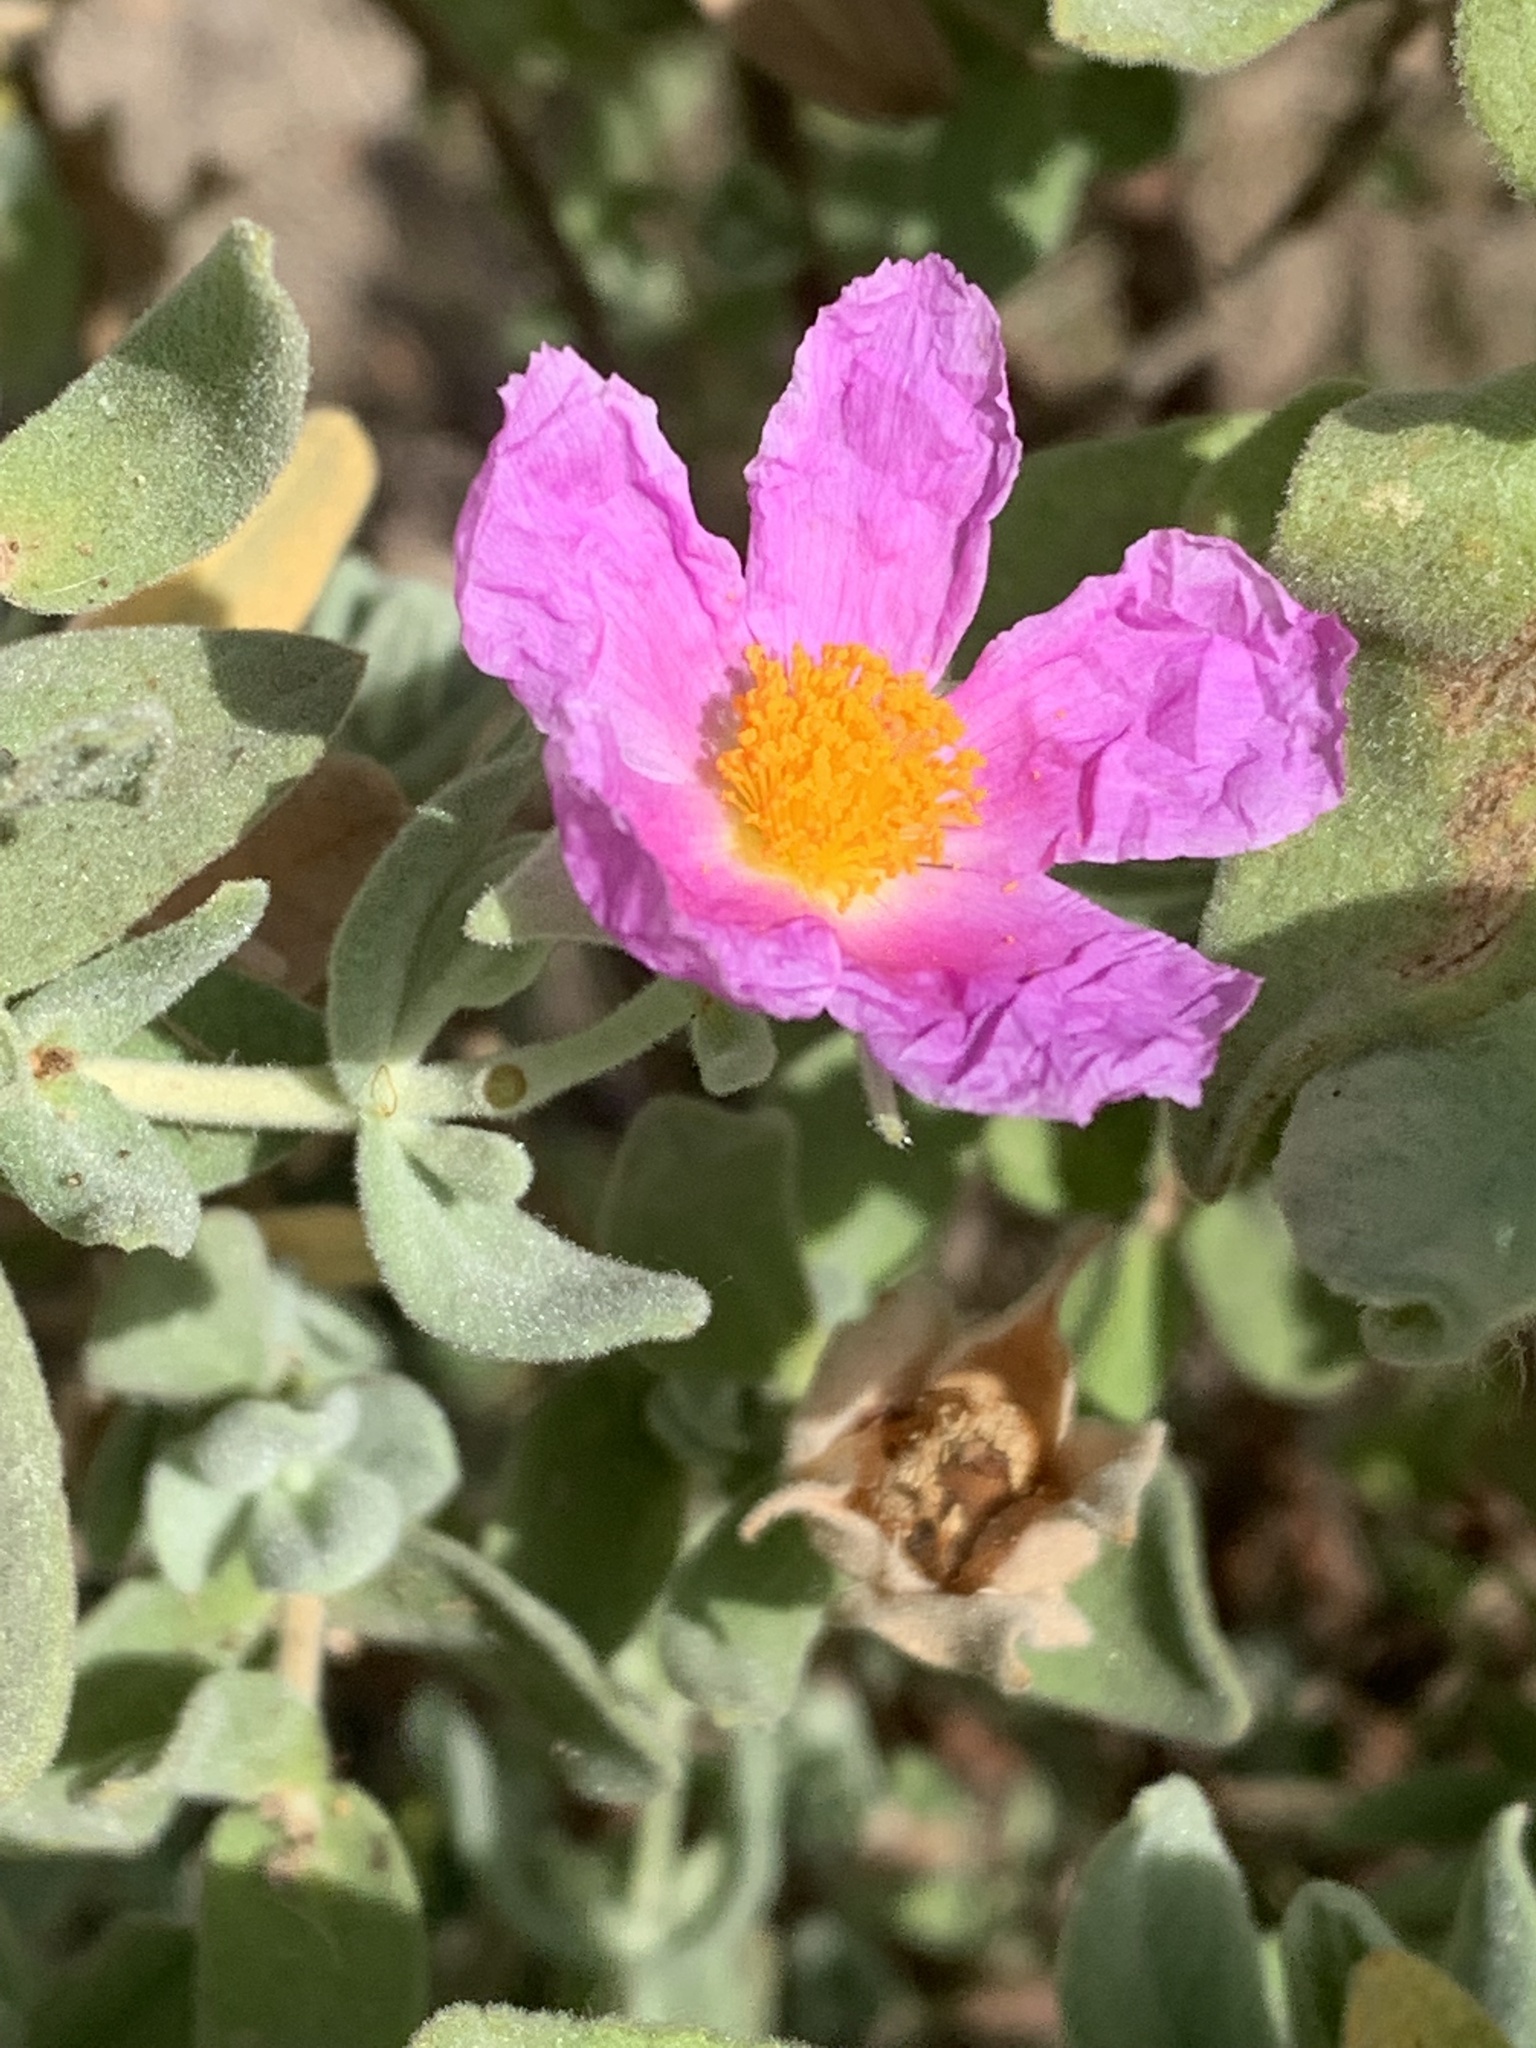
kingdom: Plantae
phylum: Tracheophyta
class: Magnoliopsida
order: Malvales
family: Cistaceae
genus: Cistus
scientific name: Cistus albidus
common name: White-leaf rock-rose
